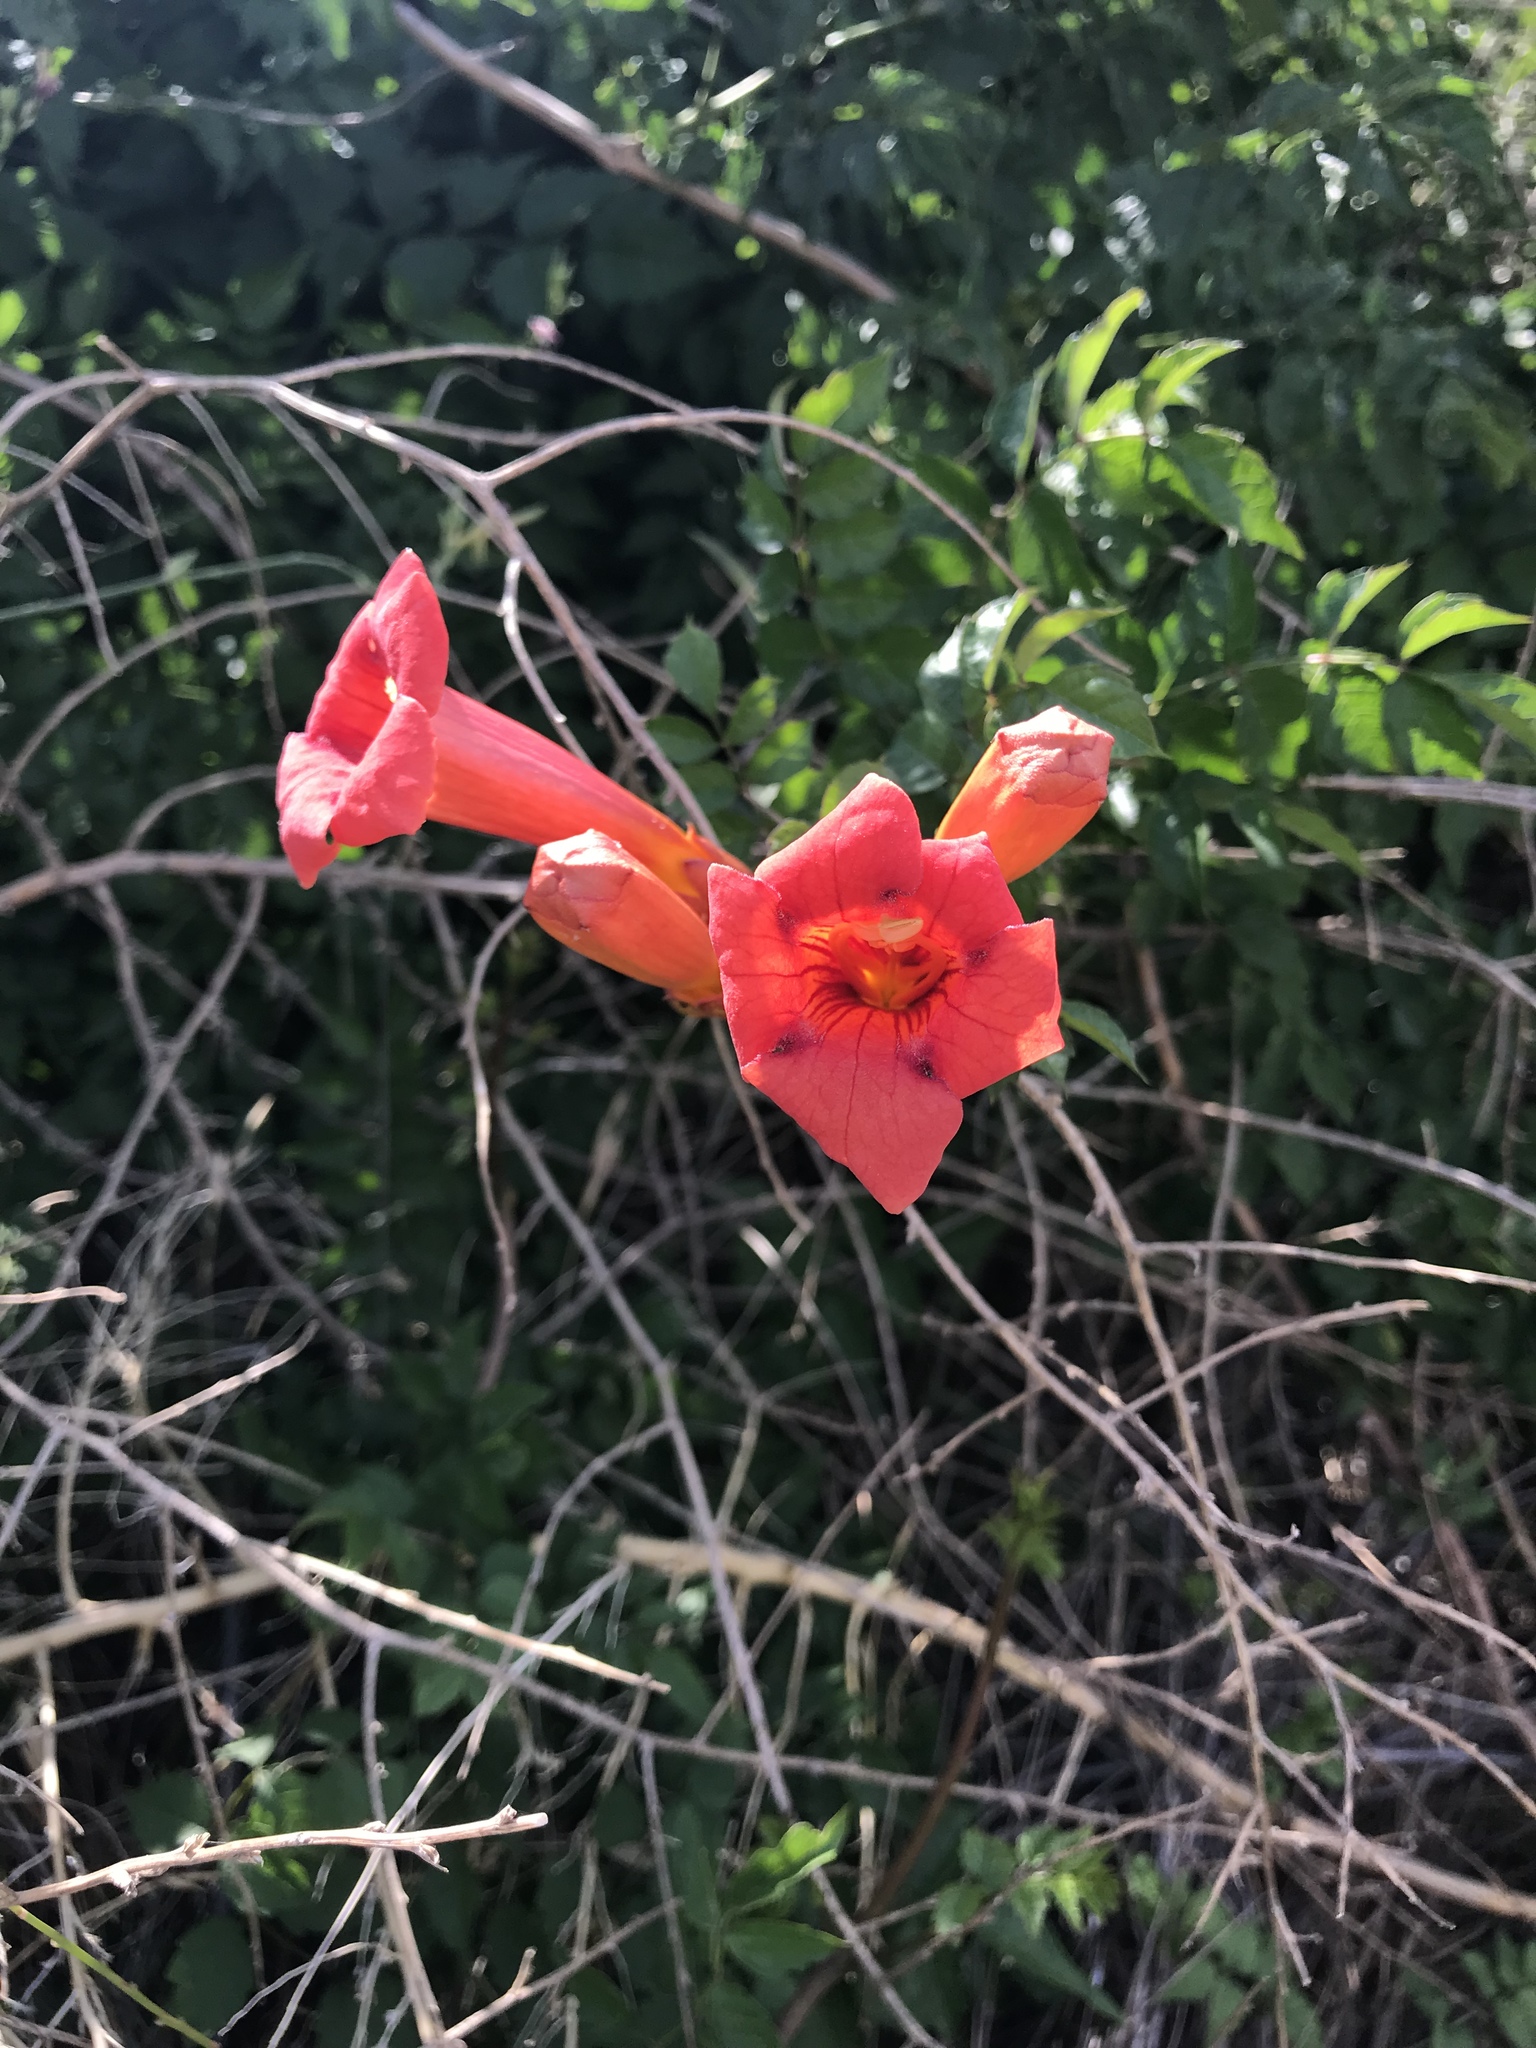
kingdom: Plantae
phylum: Tracheophyta
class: Magnoliopsida
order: Lamiales
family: Bignoniaceae
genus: Campsis
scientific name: Campsis radicans
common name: Trumpet-creeper
